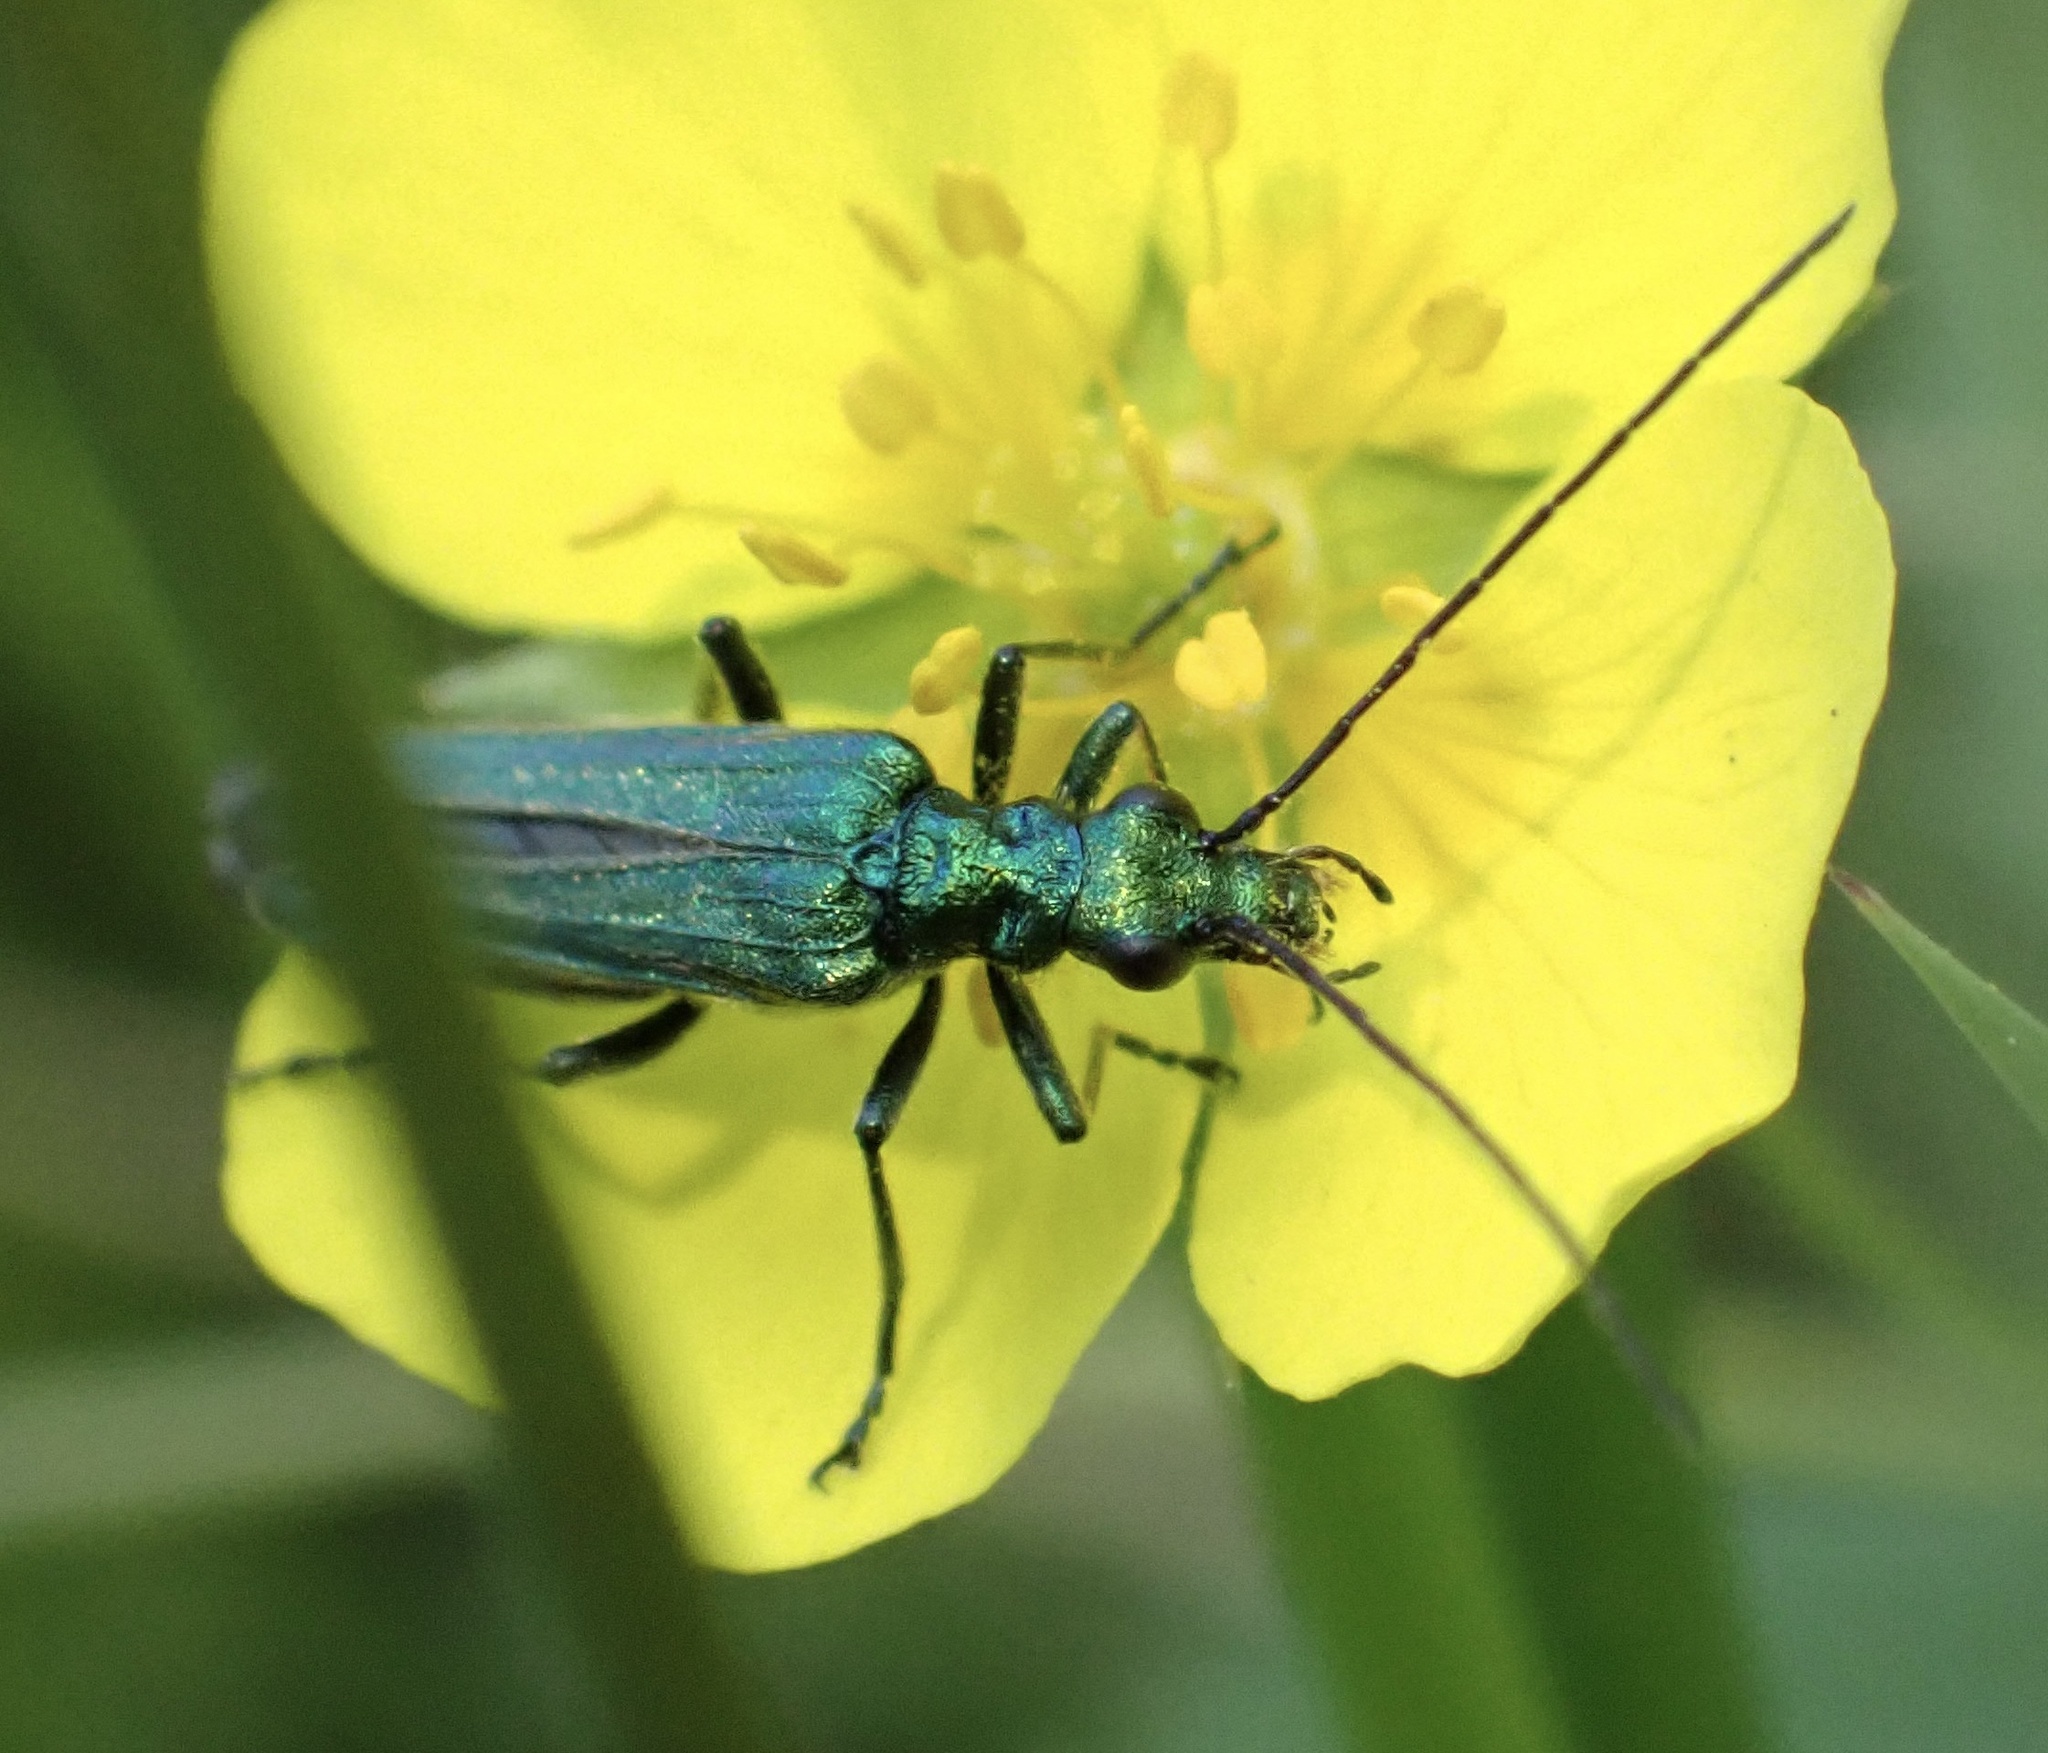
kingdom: Animalia
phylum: Arthropoda
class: Insecta
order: Coleoptera
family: Oedemeridae
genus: Oedemera
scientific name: Oedemera nobilis
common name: Swollen-thighed beetle
